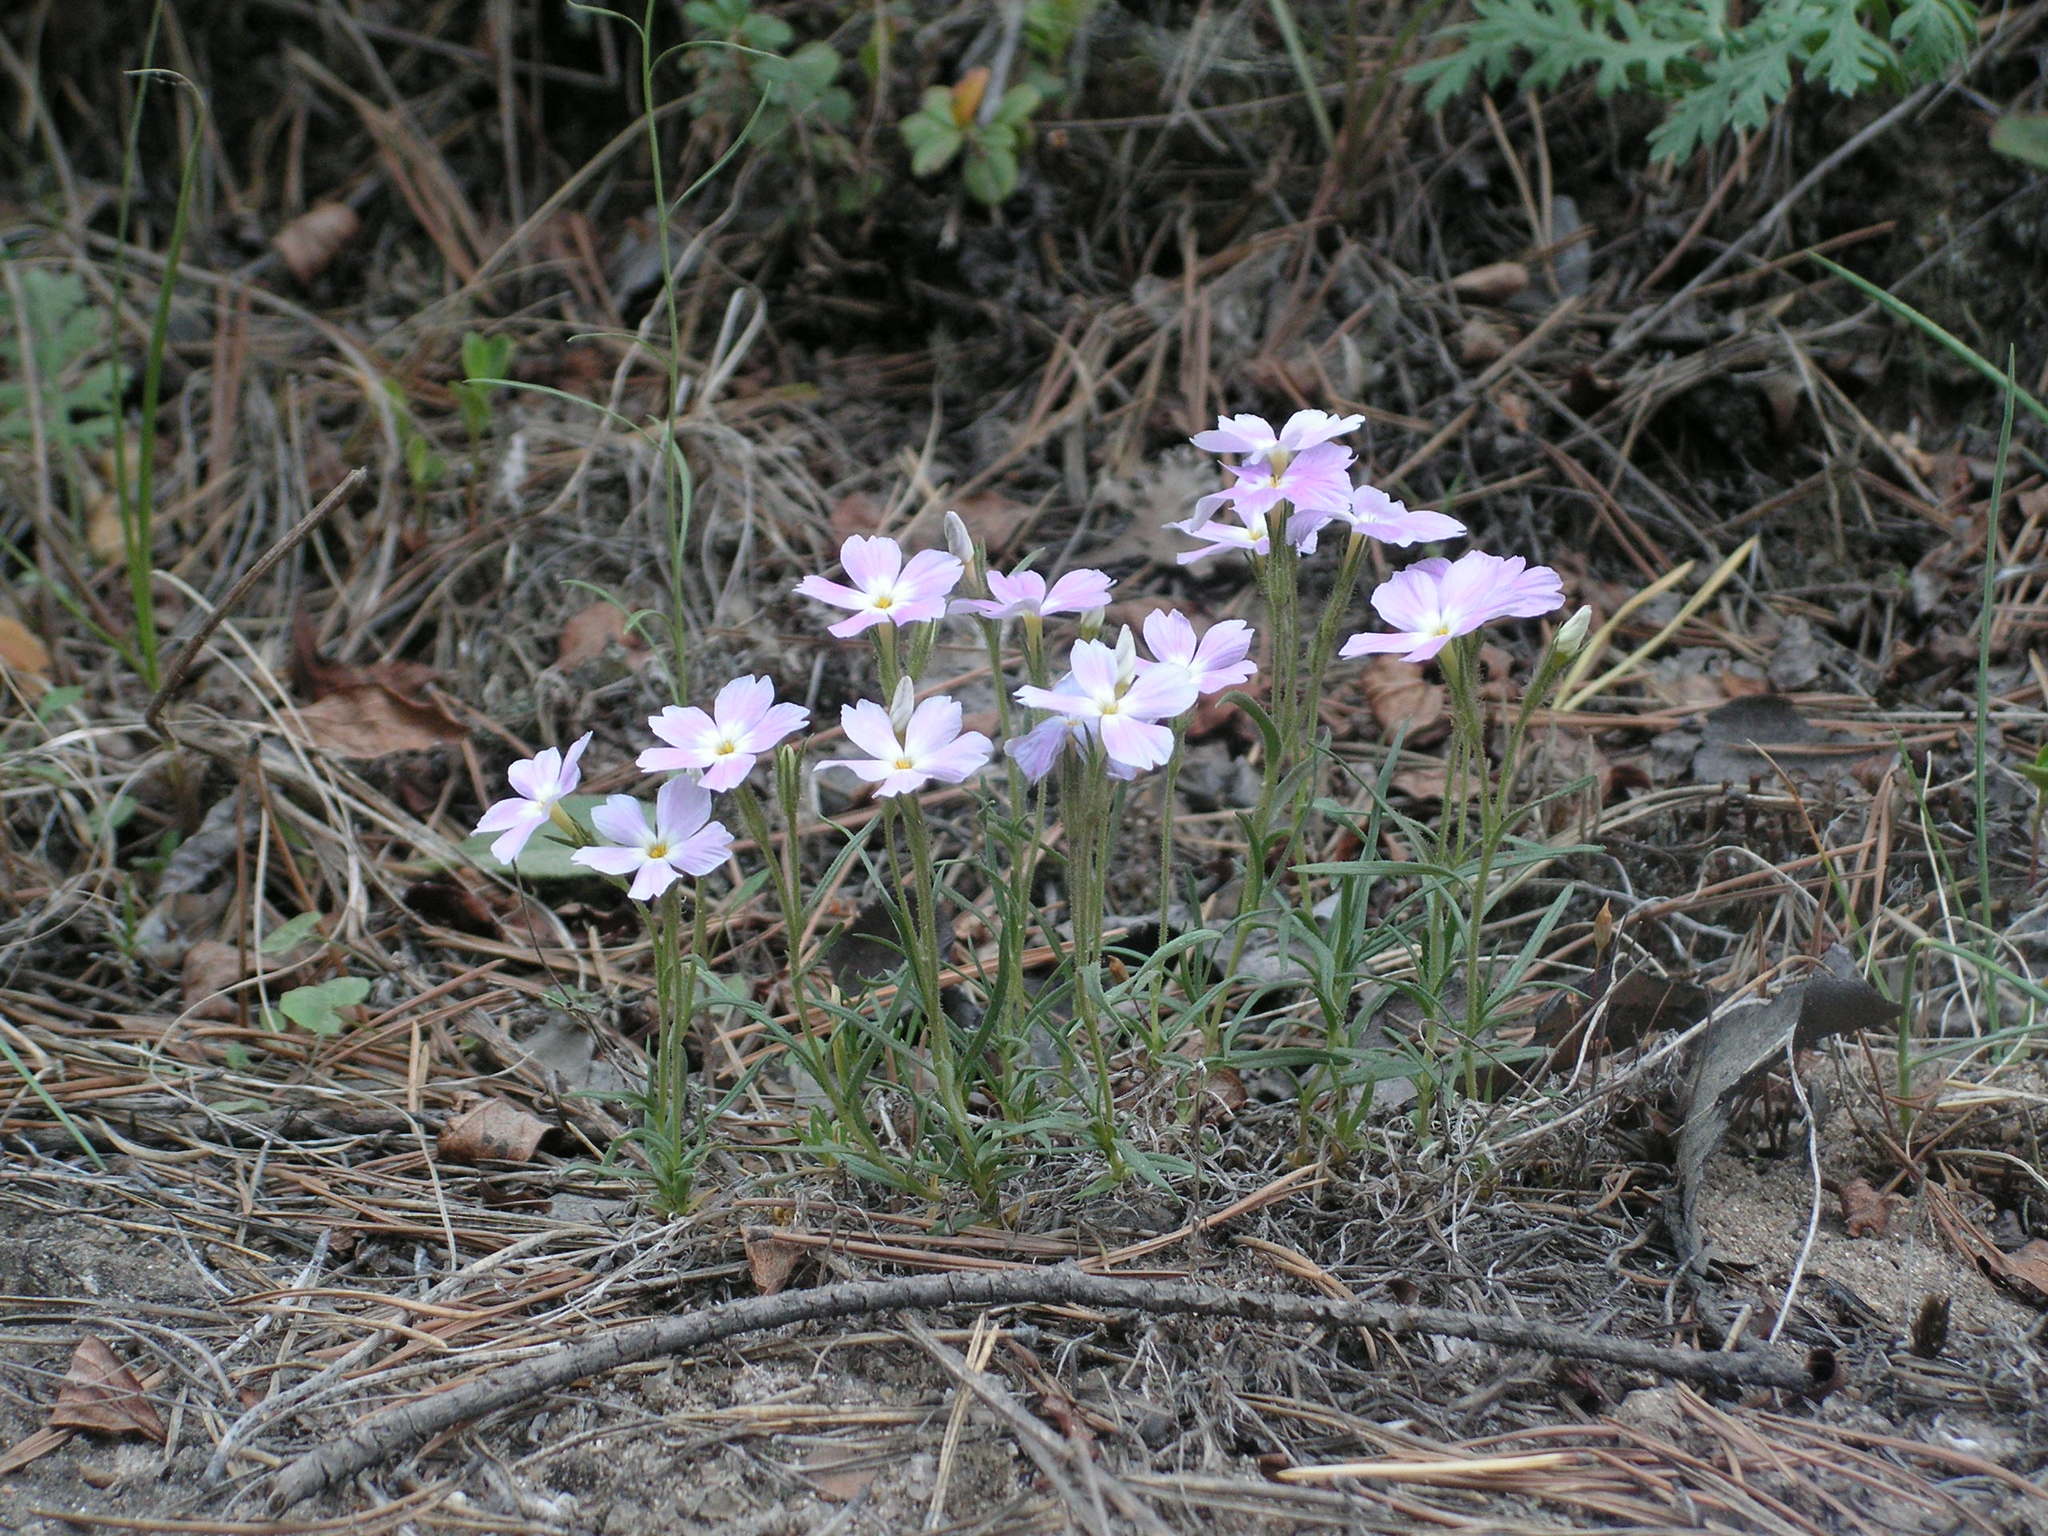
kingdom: Plantae
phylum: Tracheophyta
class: Magnoliopsida
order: Ericales
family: Polemoniaceae
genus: Phlox
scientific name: Phlox sibirica
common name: Siberian phlox
